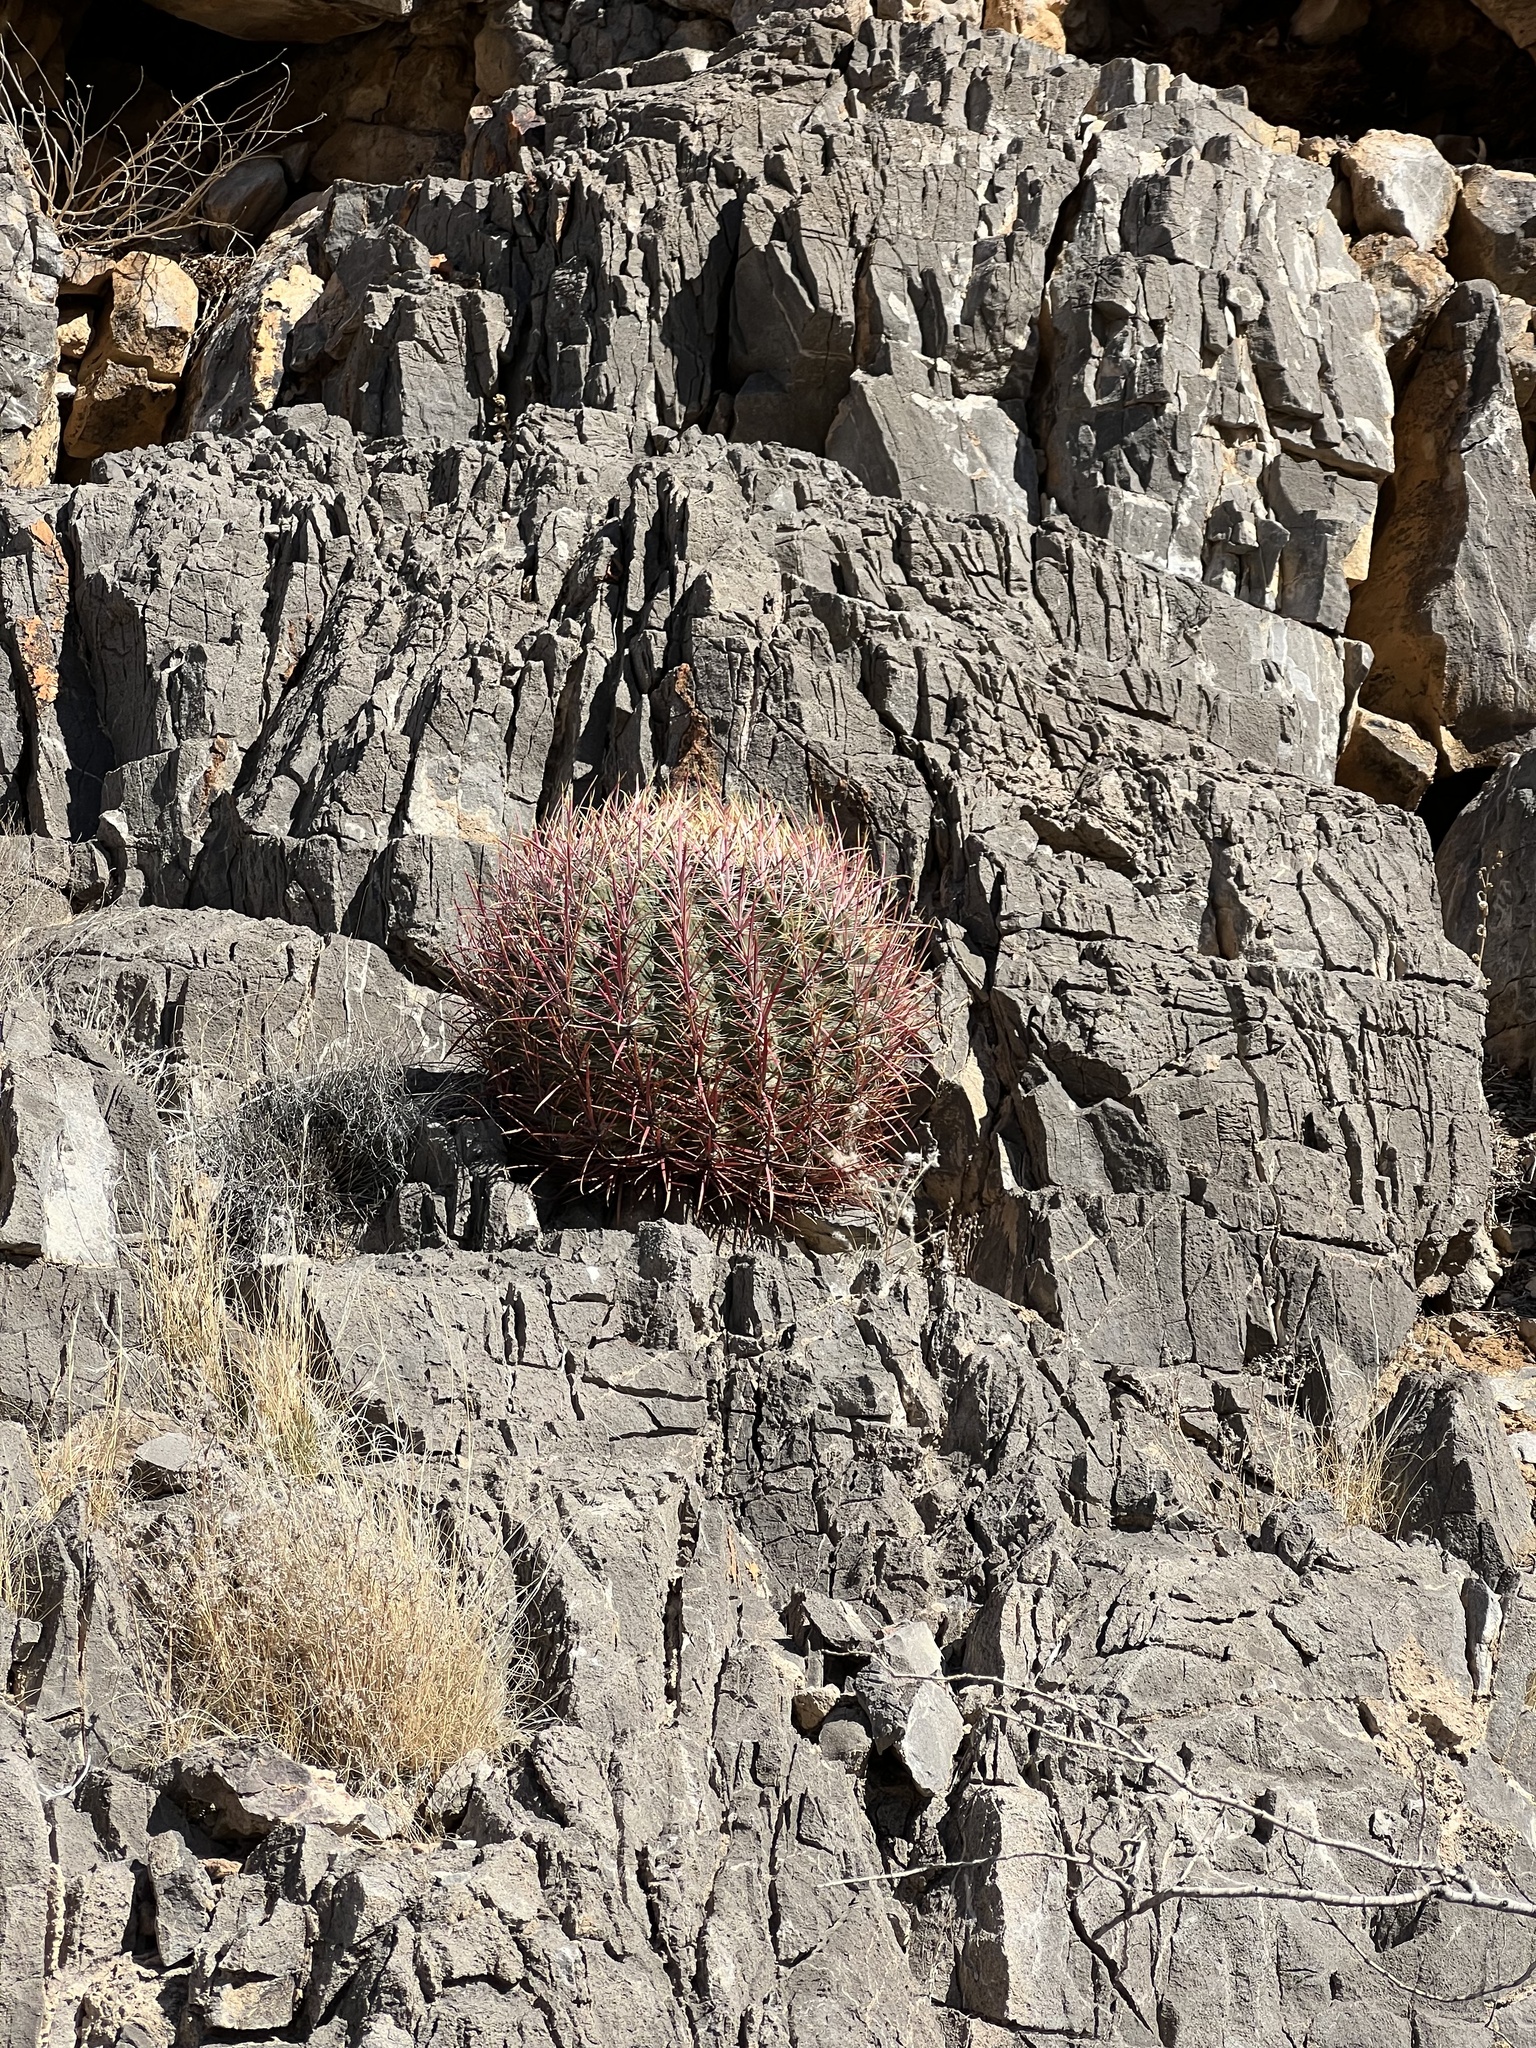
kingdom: Plantae
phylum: Tracheophyta
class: Magnoliopsida
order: Caryophyllales
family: Cactaceae
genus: Ferocactus
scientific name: Ferocactus cylindraceus
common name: California barrel cactus
